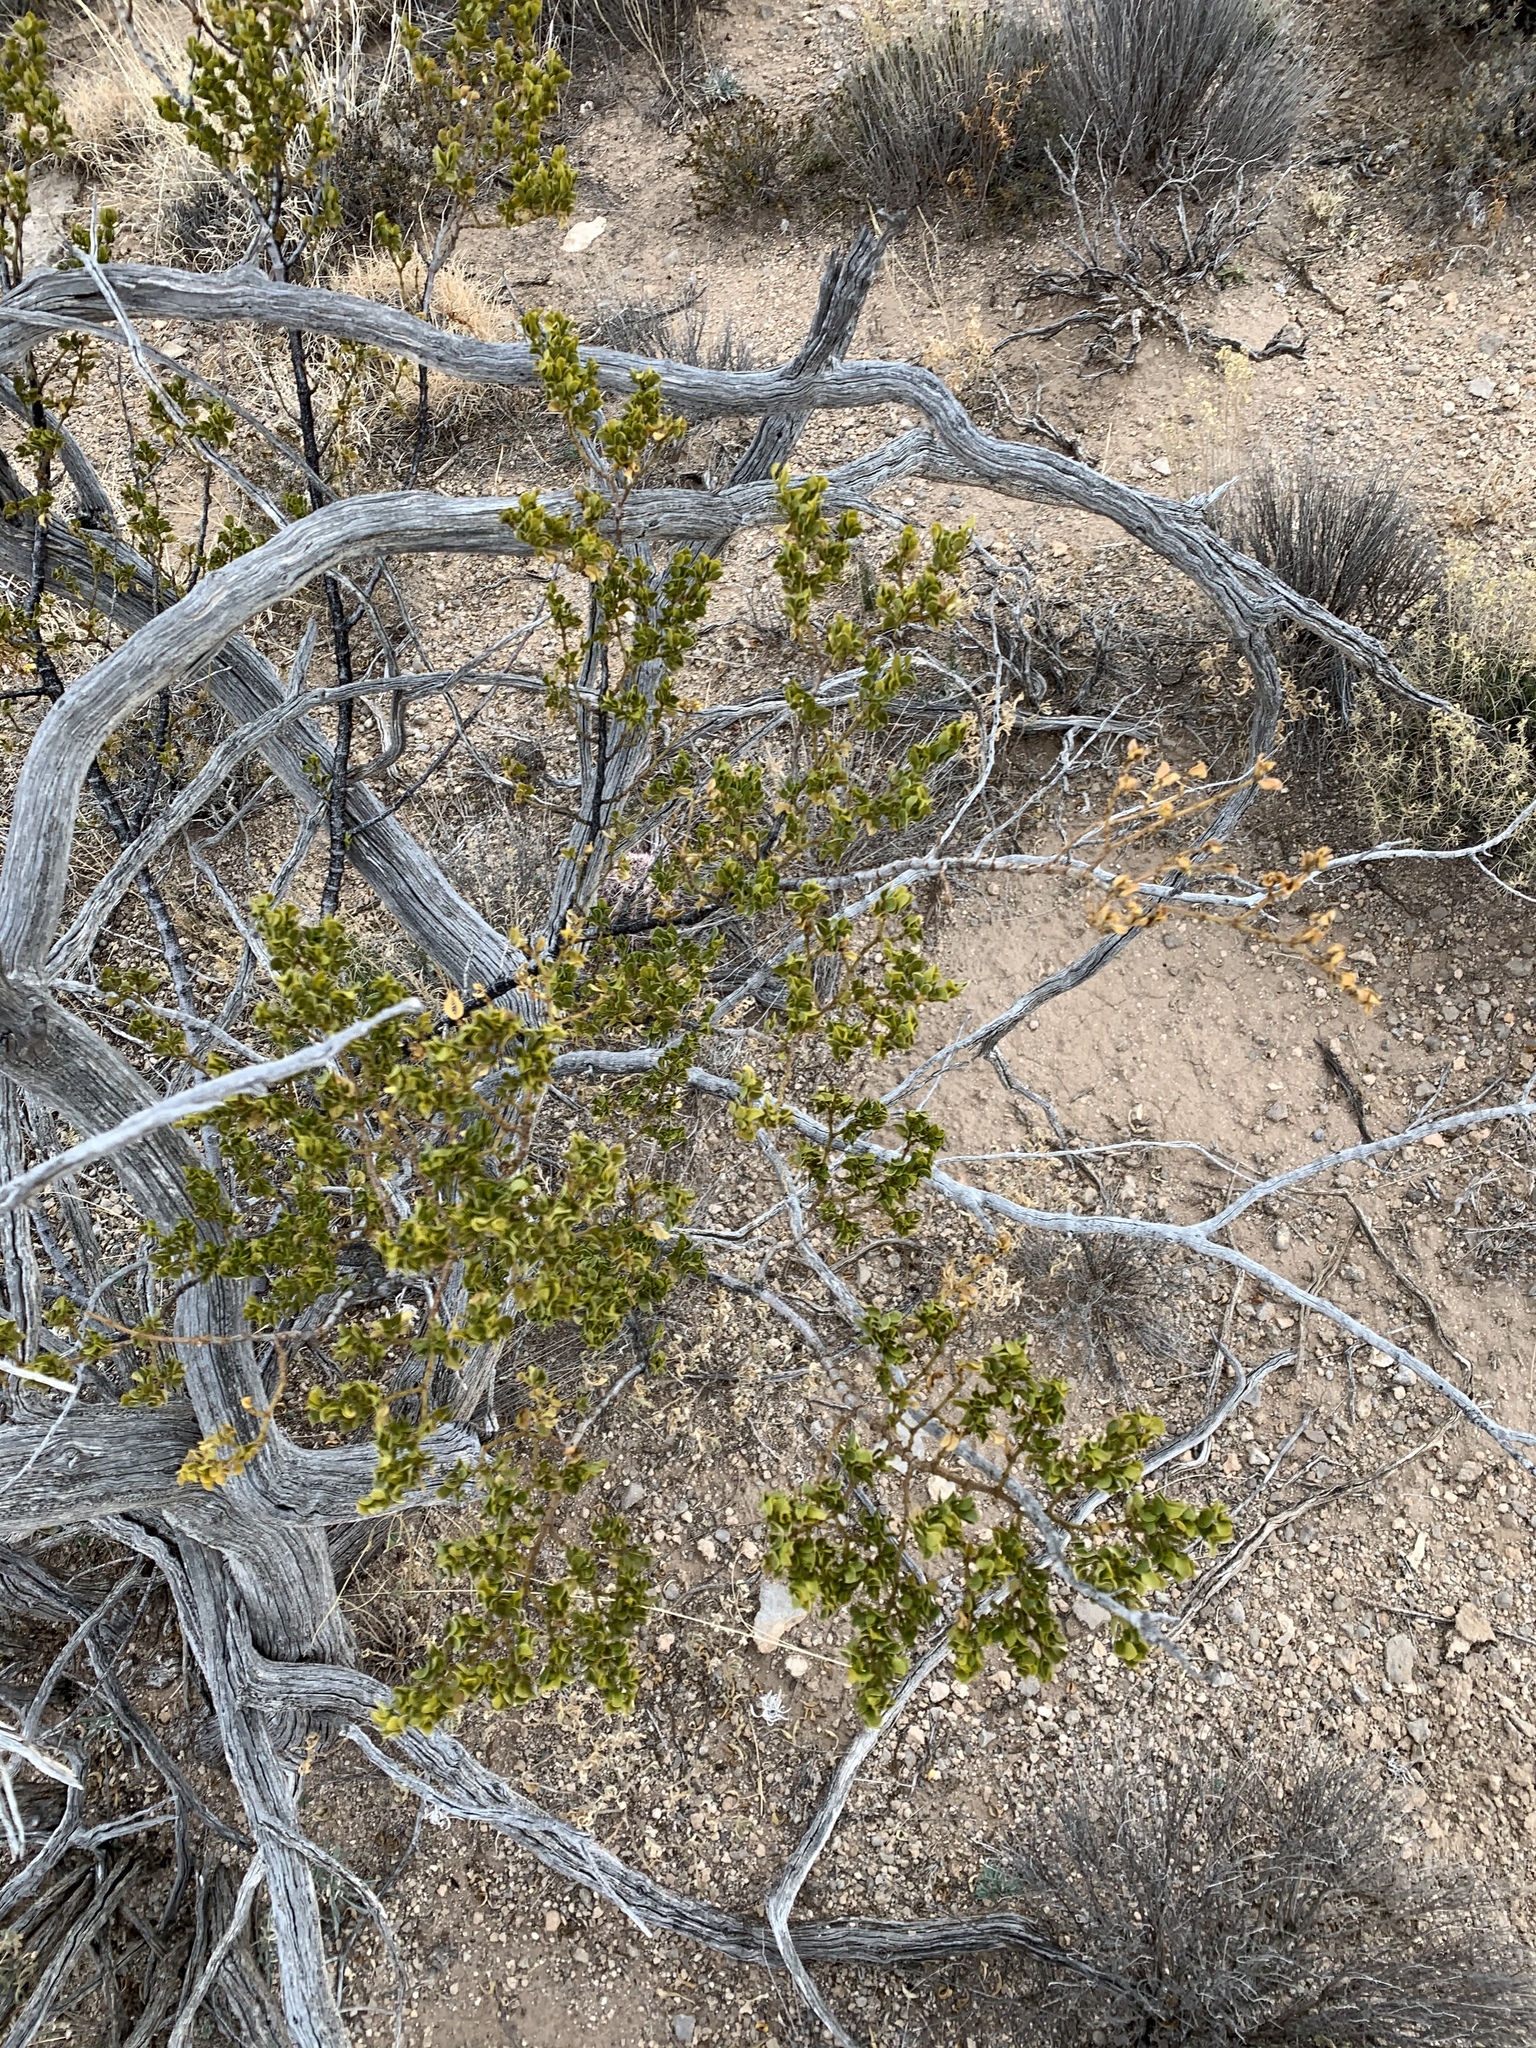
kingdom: Plantae
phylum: Tracheophyta
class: Magnoliopsida
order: Zygophyllales
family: Zygophyllaceae
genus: Larrea
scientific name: Larrea tridentata
